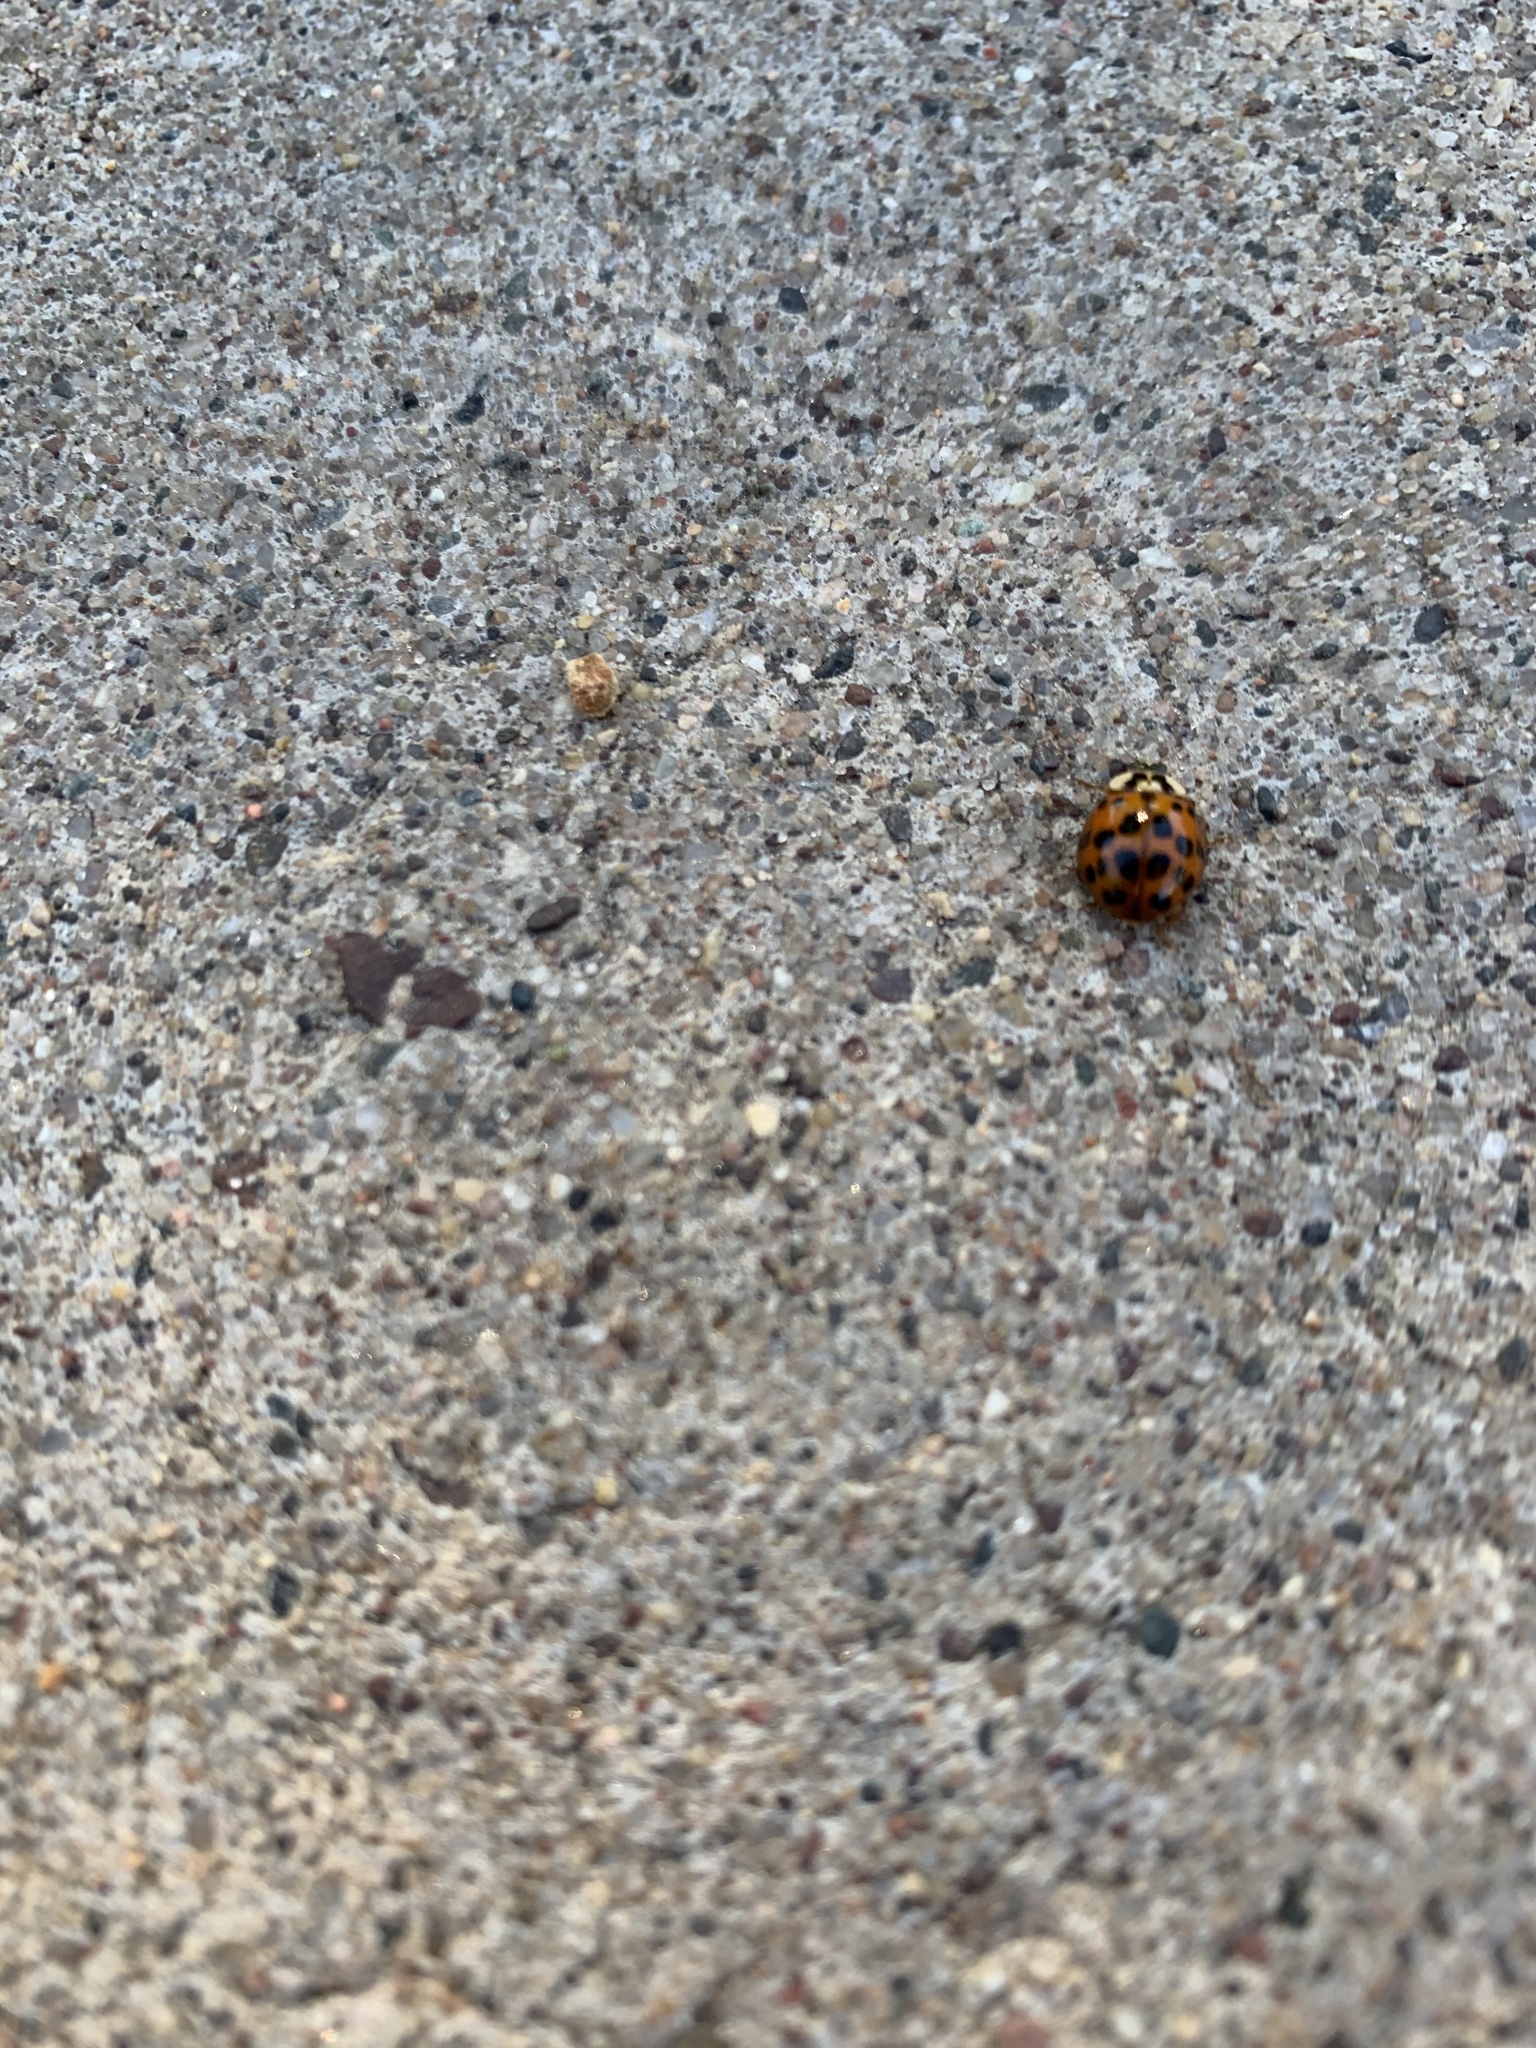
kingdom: Animalia
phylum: Arthropoda
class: Insecta
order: Coleoptera
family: Coccinellidae
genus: Harmonia
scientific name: Harmonia axyridis
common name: Harlequin ladybird
